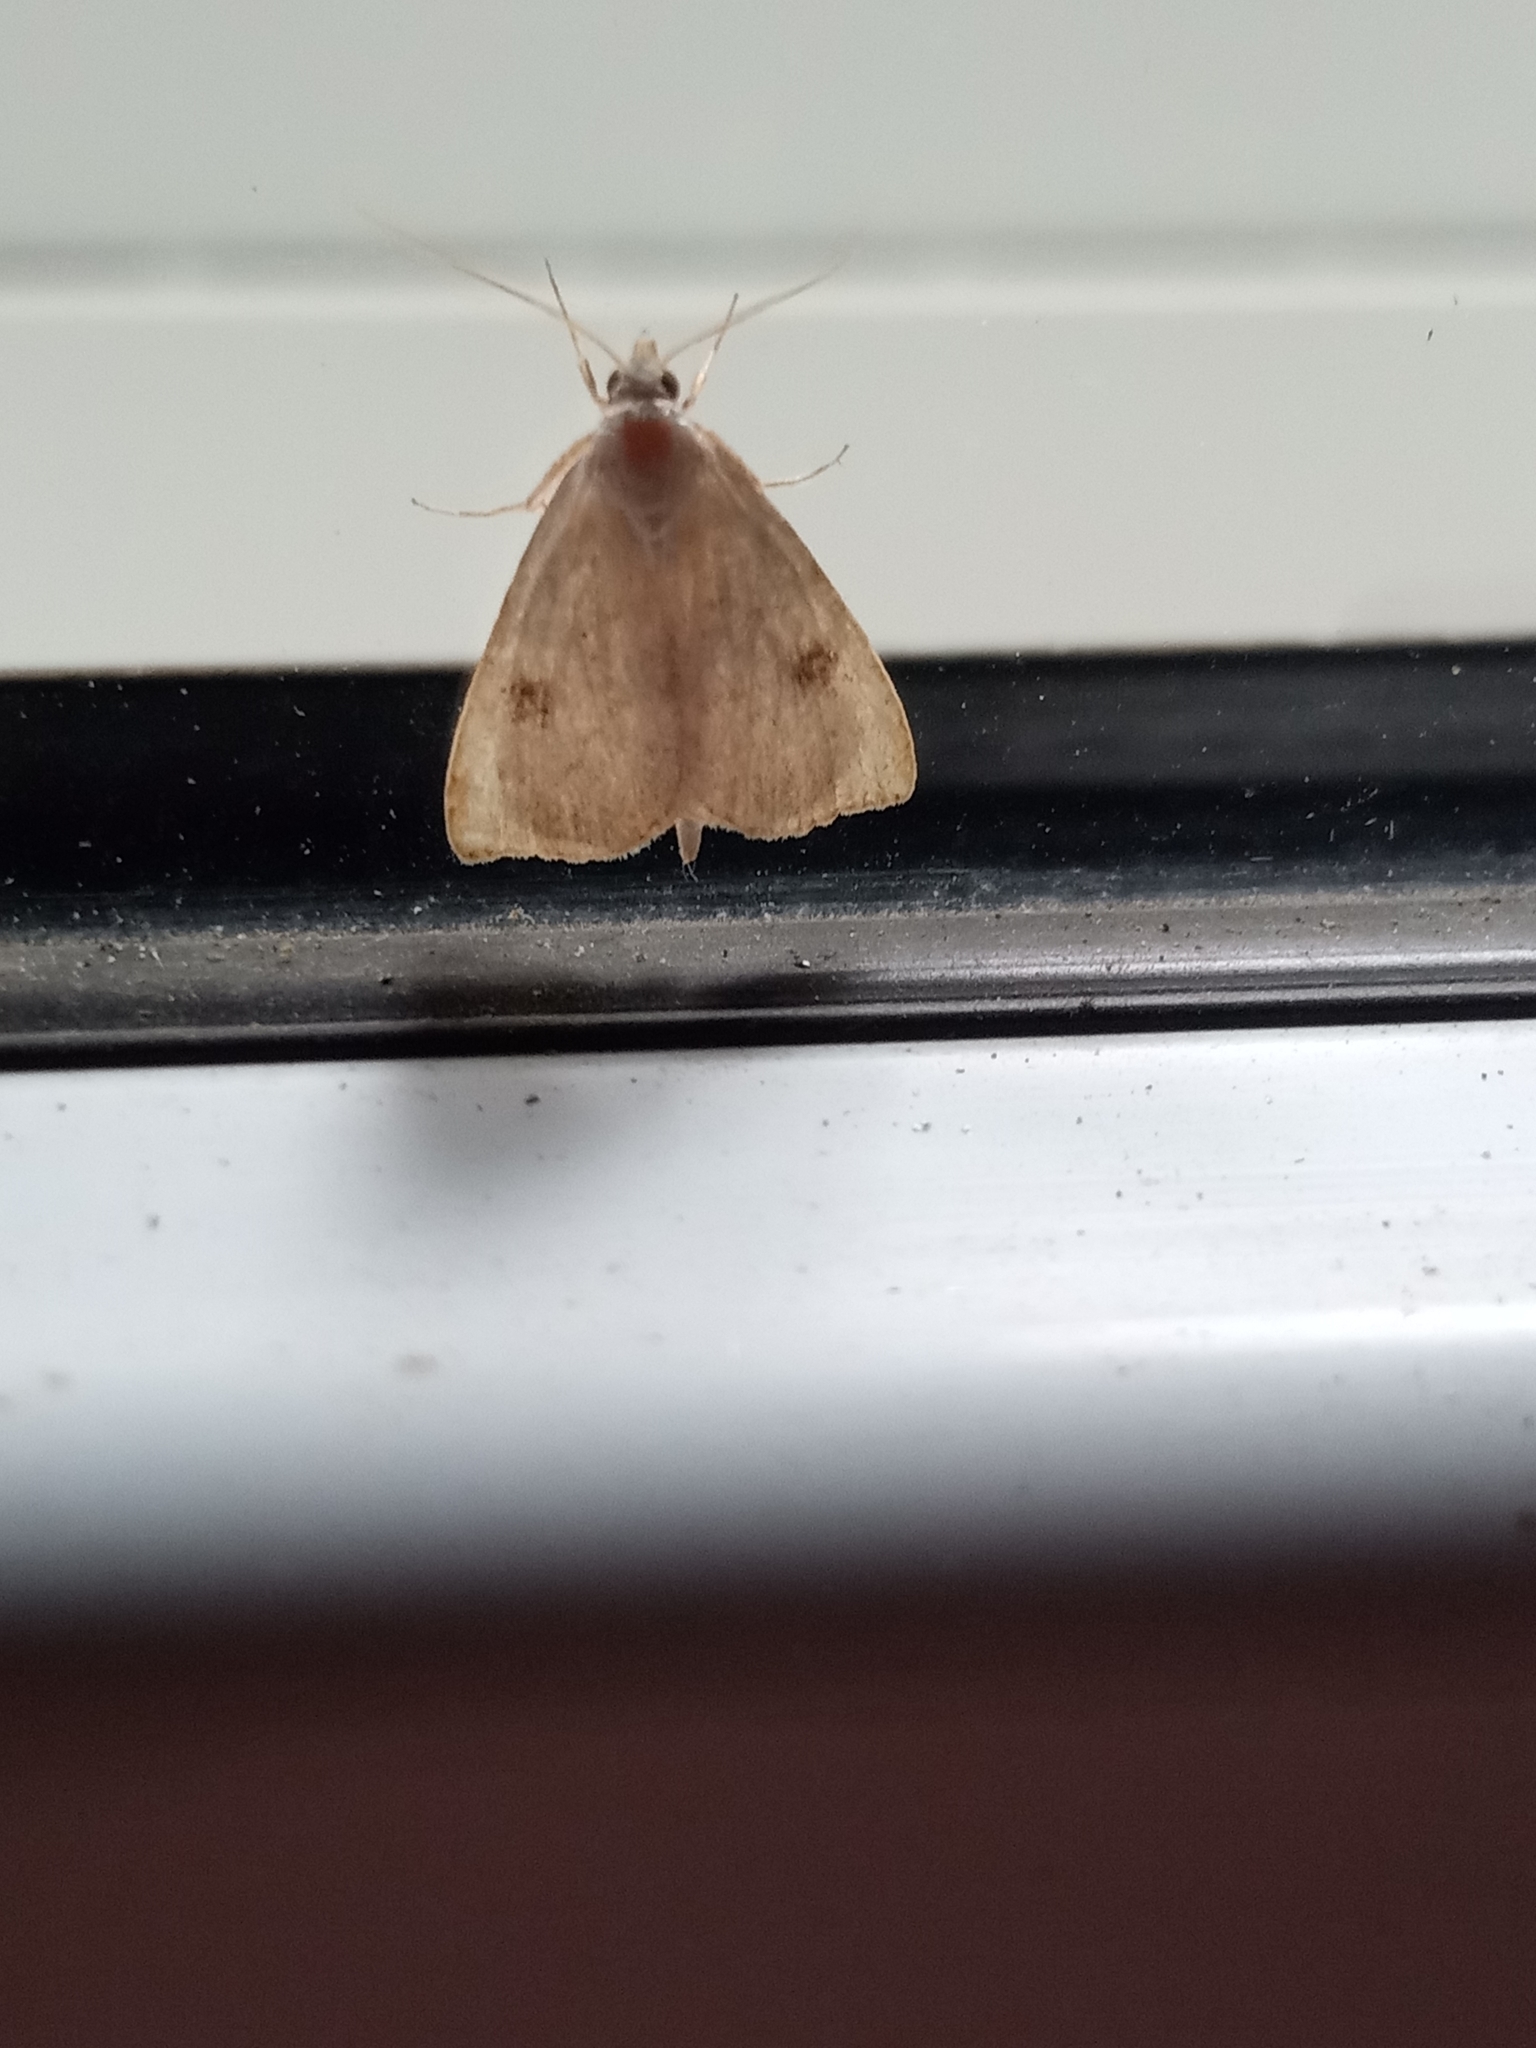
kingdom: Animalia
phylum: Arthropoda
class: Insecta
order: Lepidoptera
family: Erebidae
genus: Rivula
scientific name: Rivula sericealis
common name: Straw dot
